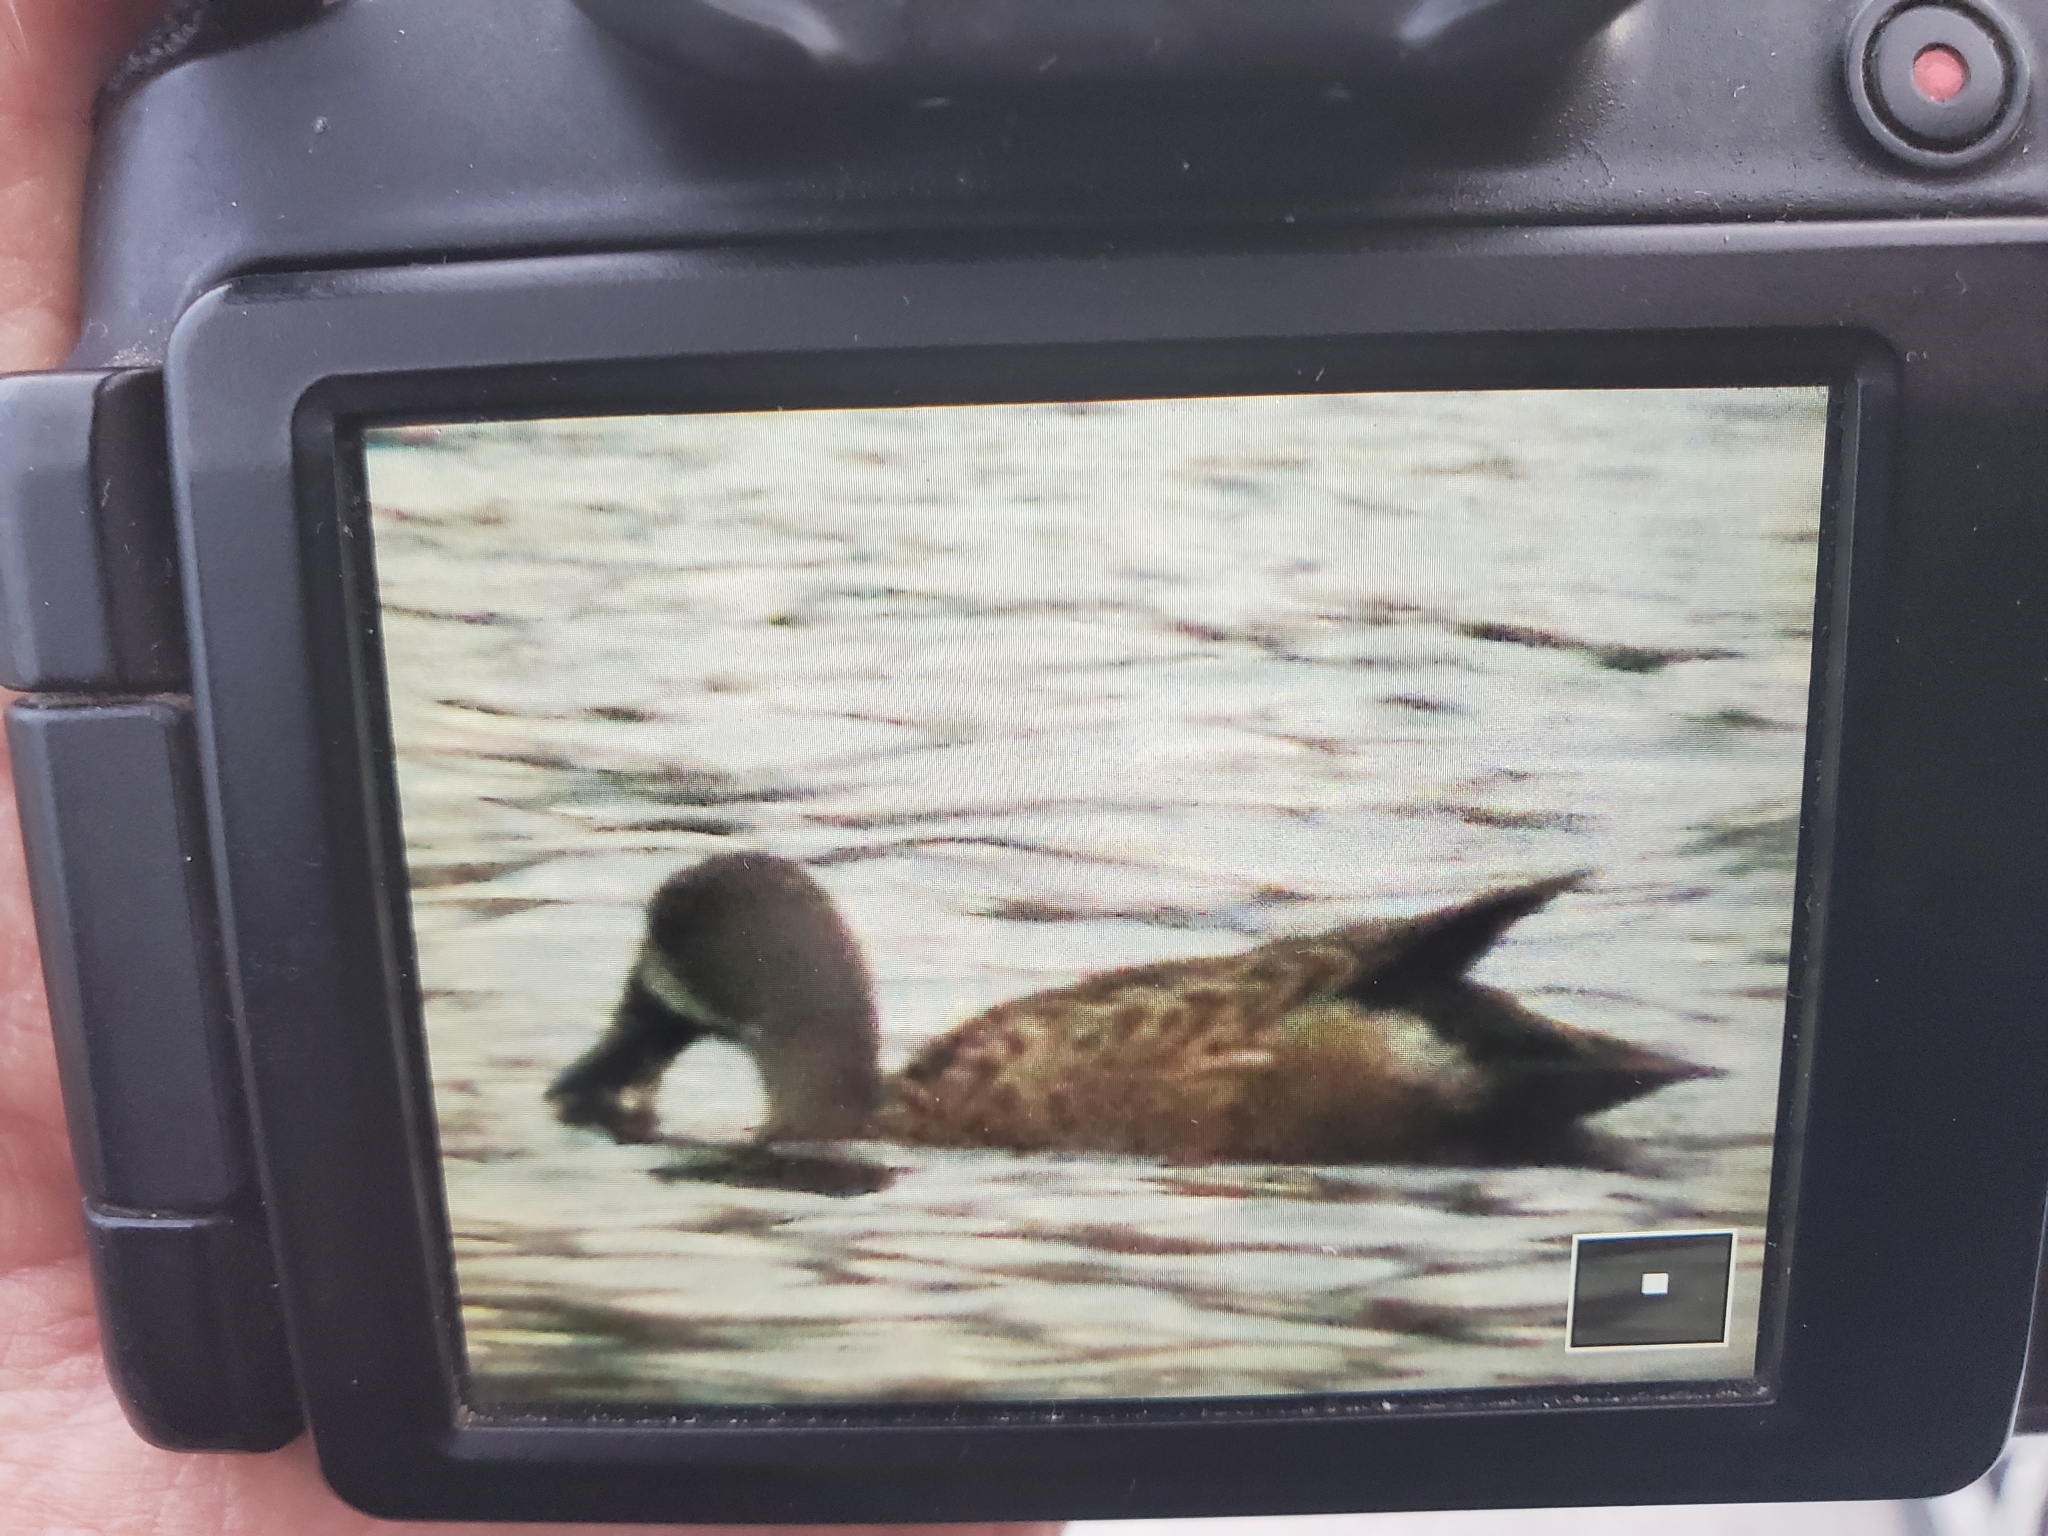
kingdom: Animalia
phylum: Chordata
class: Aves
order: Anseriformes
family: Anatidae
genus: Spatula
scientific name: Spatula discors
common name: Blue-winged teal
